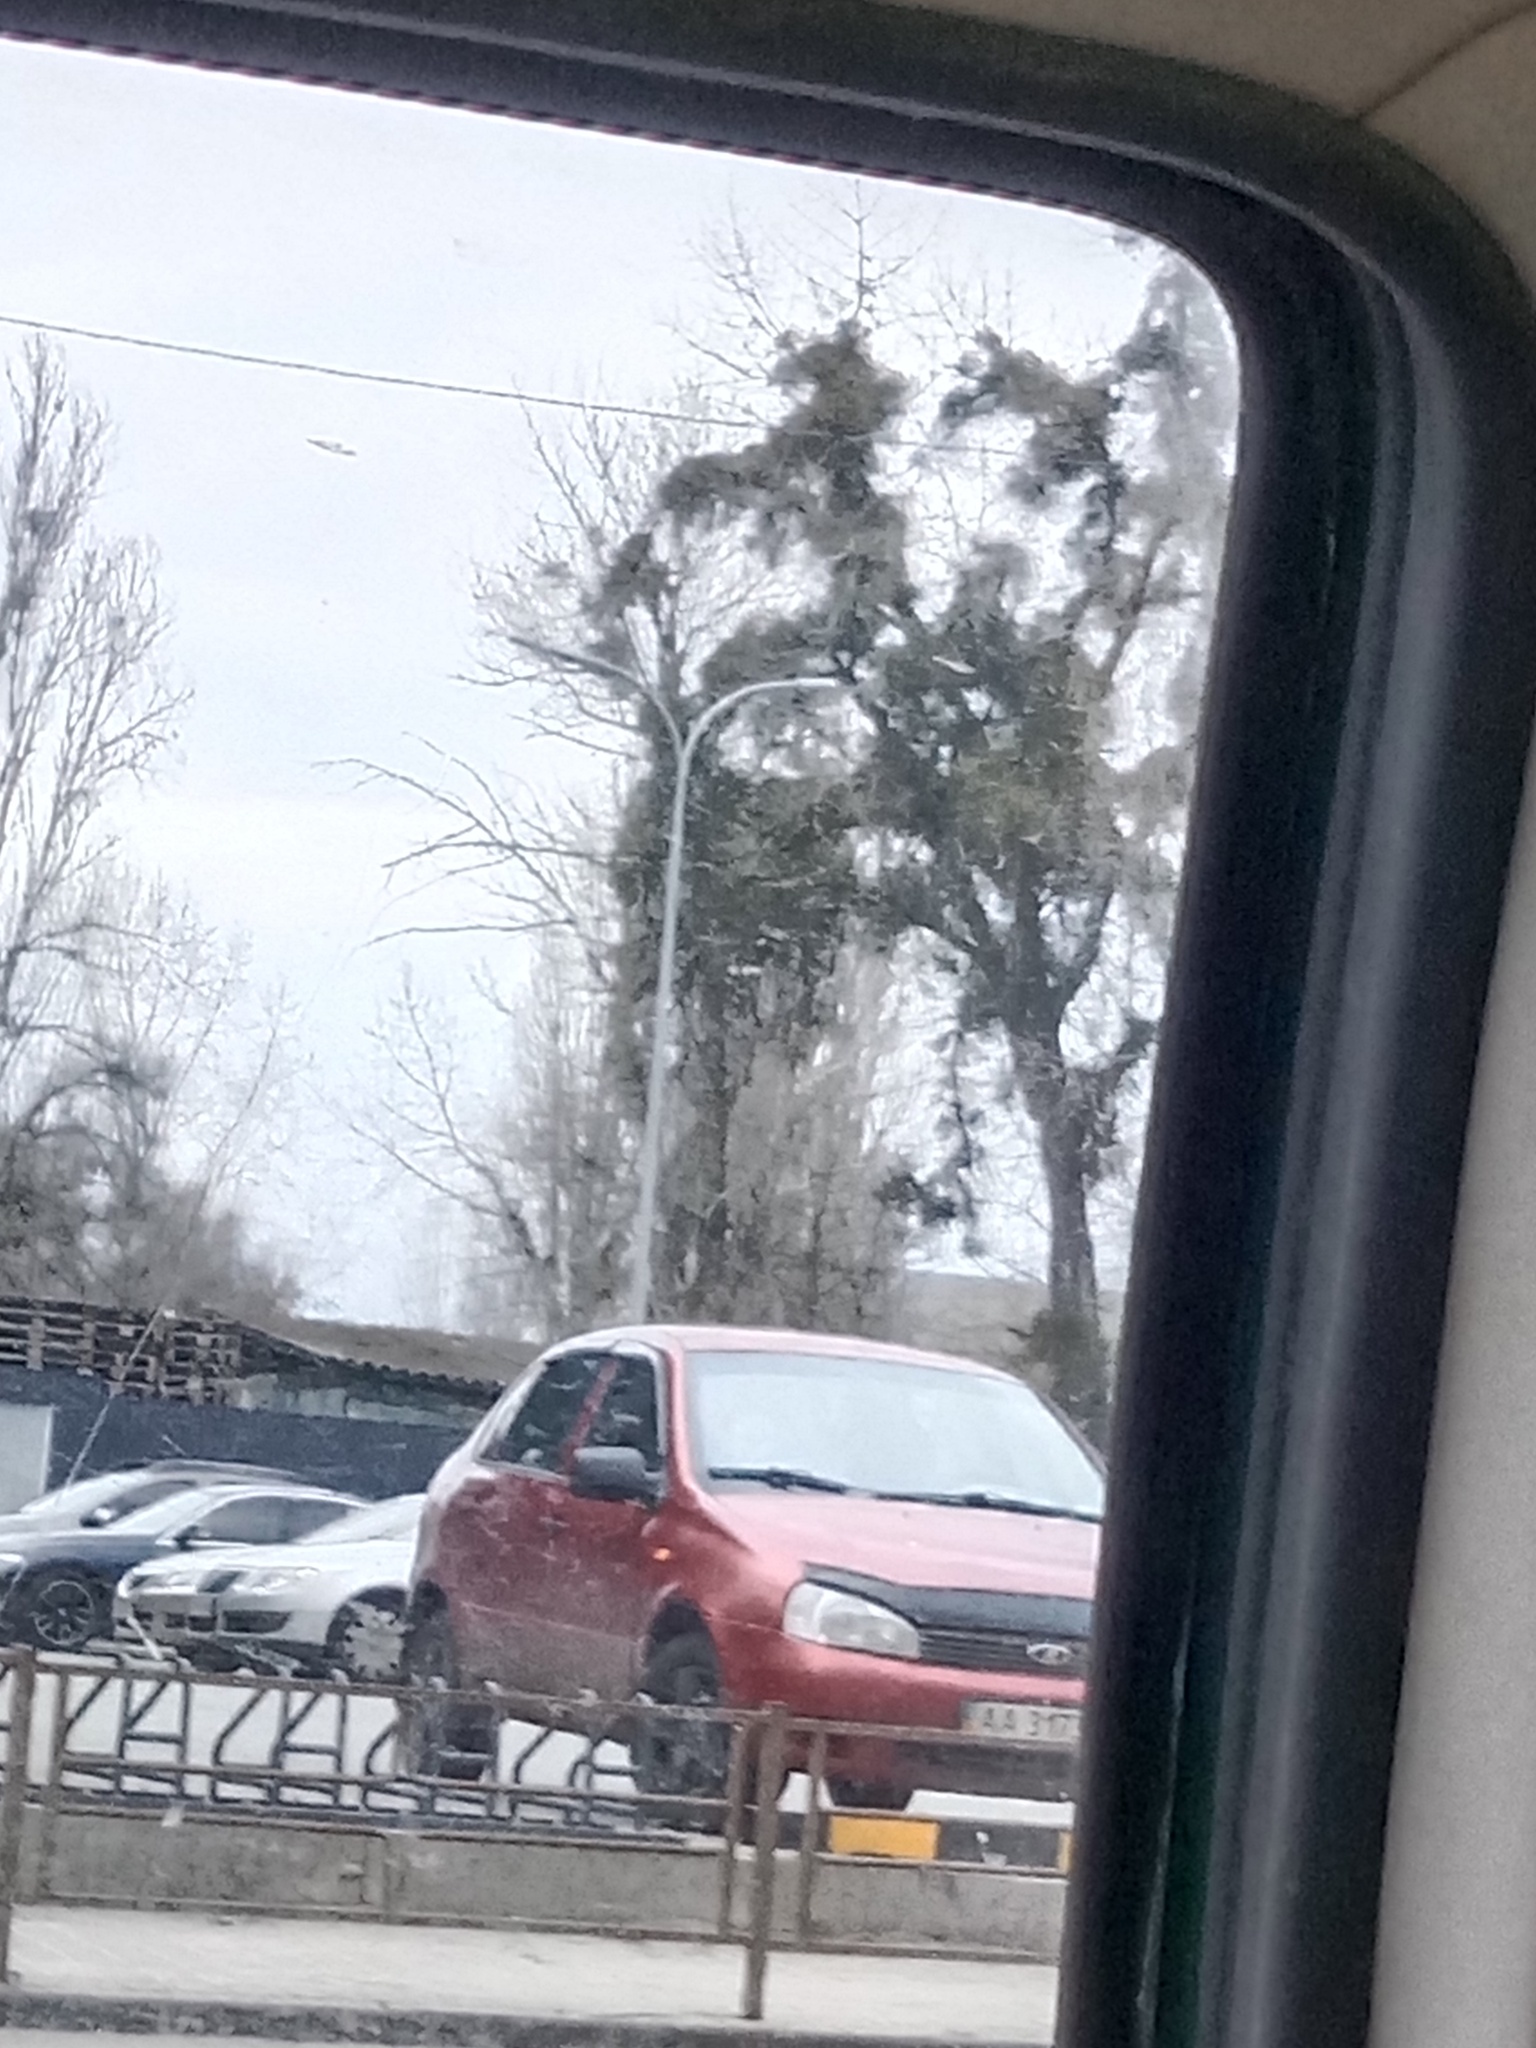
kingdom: Plantae
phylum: Tracheophyta
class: Magnoliopsida
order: Santalales
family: Viscaceae
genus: Viscum
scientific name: Viscum album
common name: Mistletoe
